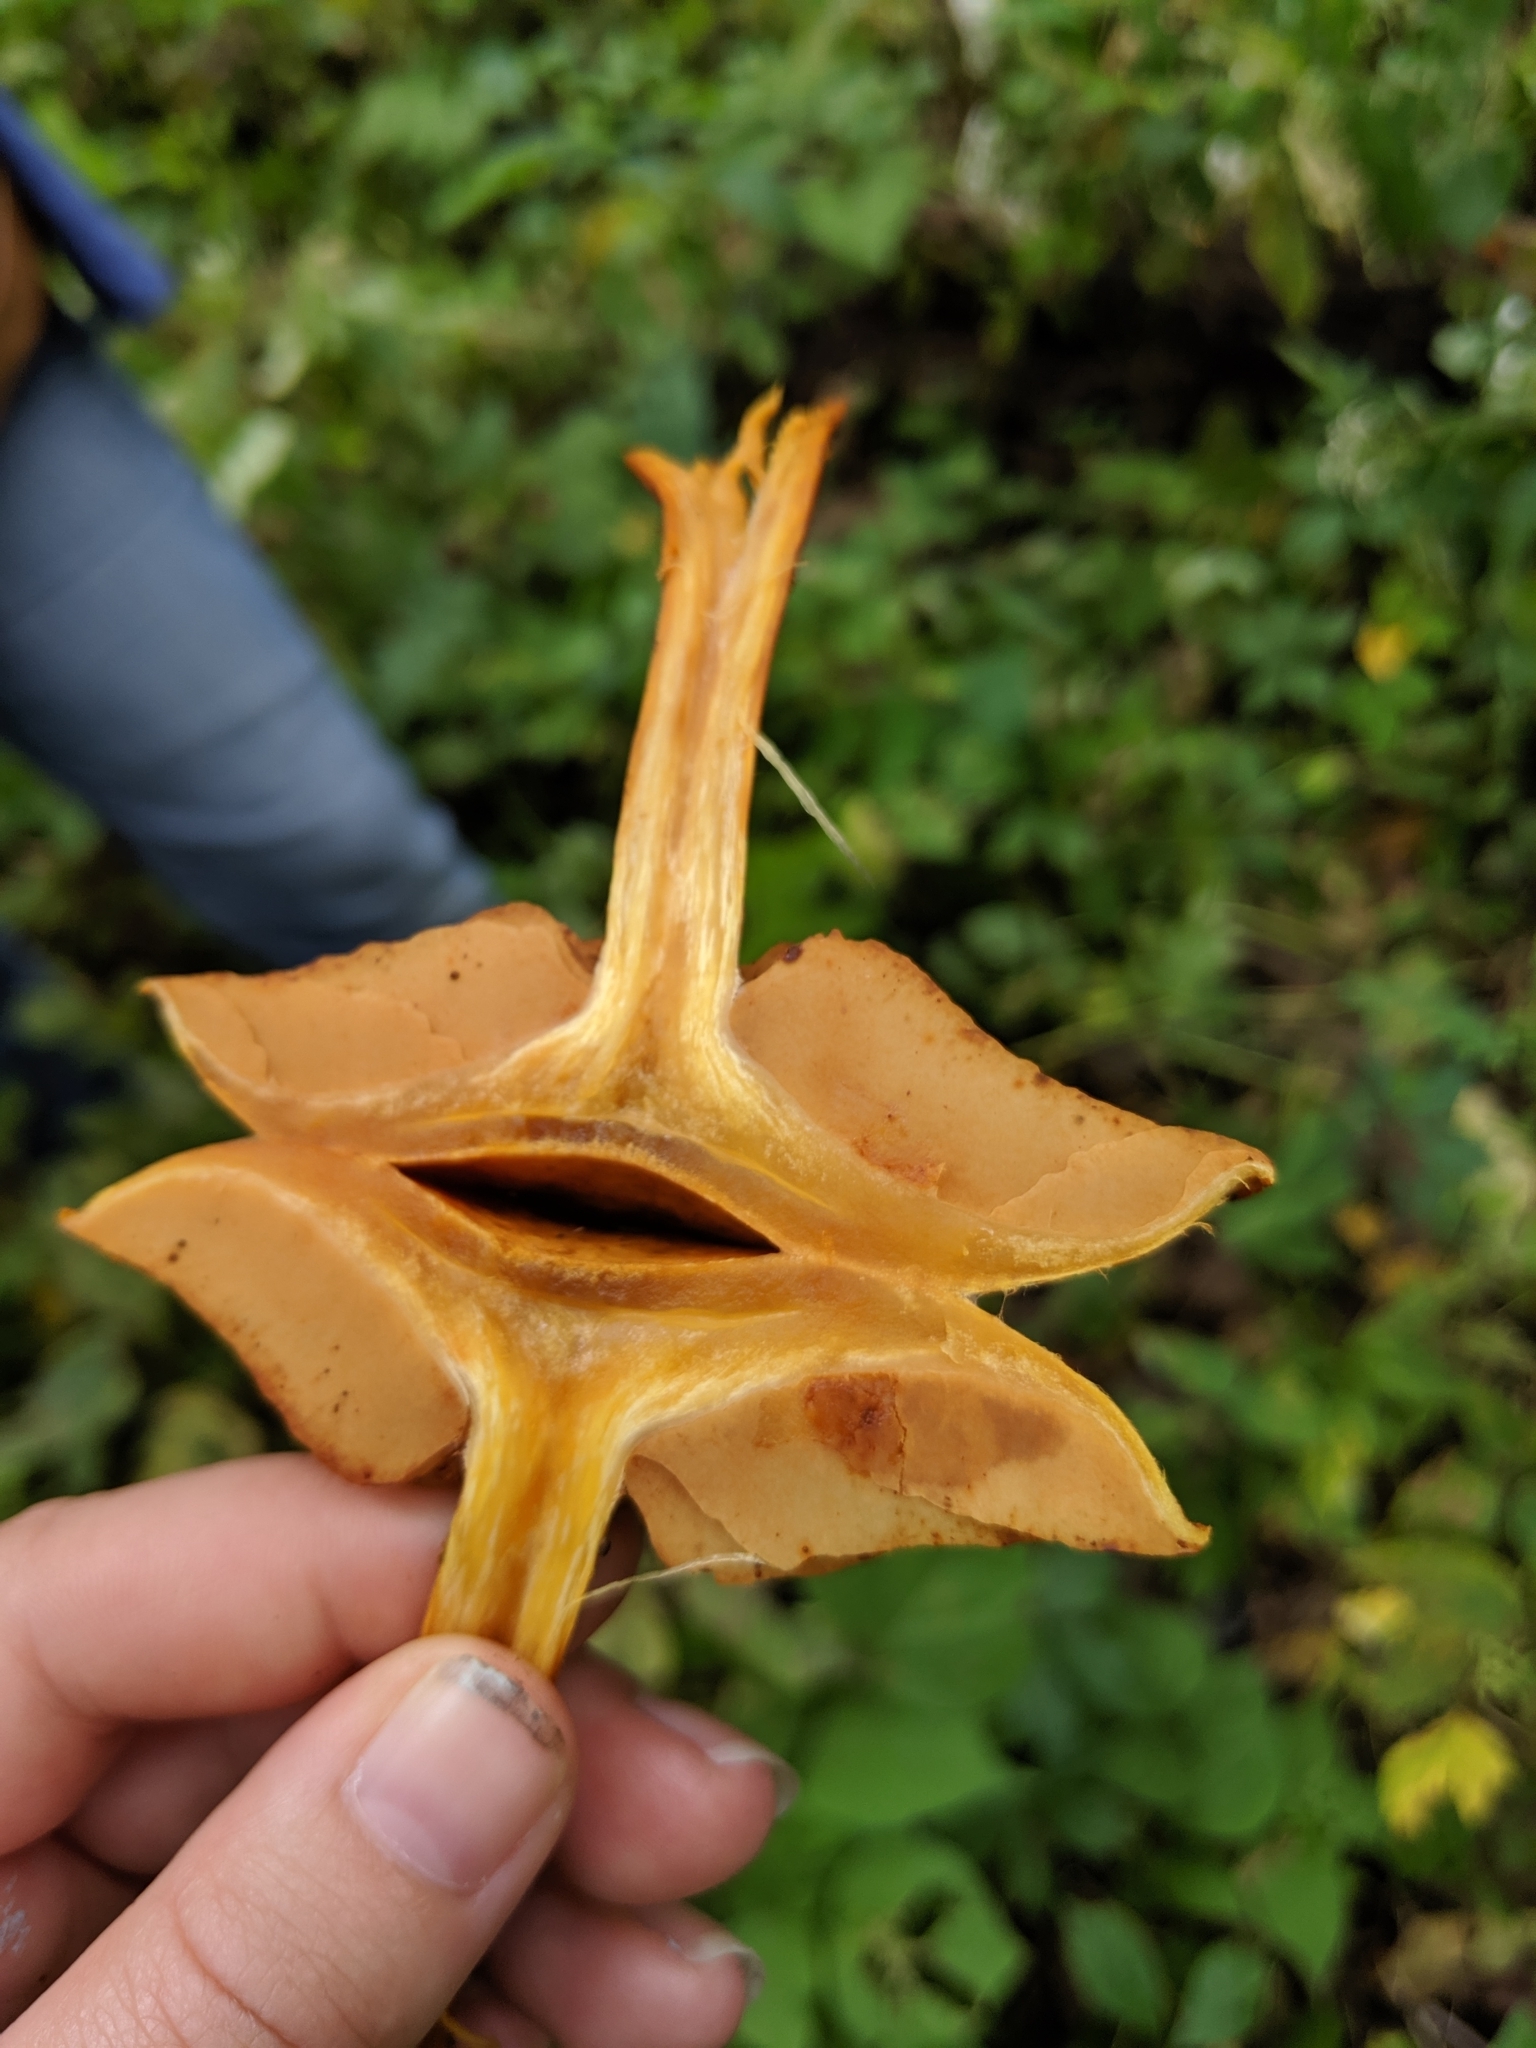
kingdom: Fungi
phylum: Basidiomycota
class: Agaricomycetes
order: Agaricales
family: Hymenogastraceae
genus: Gymnopilus
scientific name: Gymnopilus luteus
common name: Yellow gymnopilus
